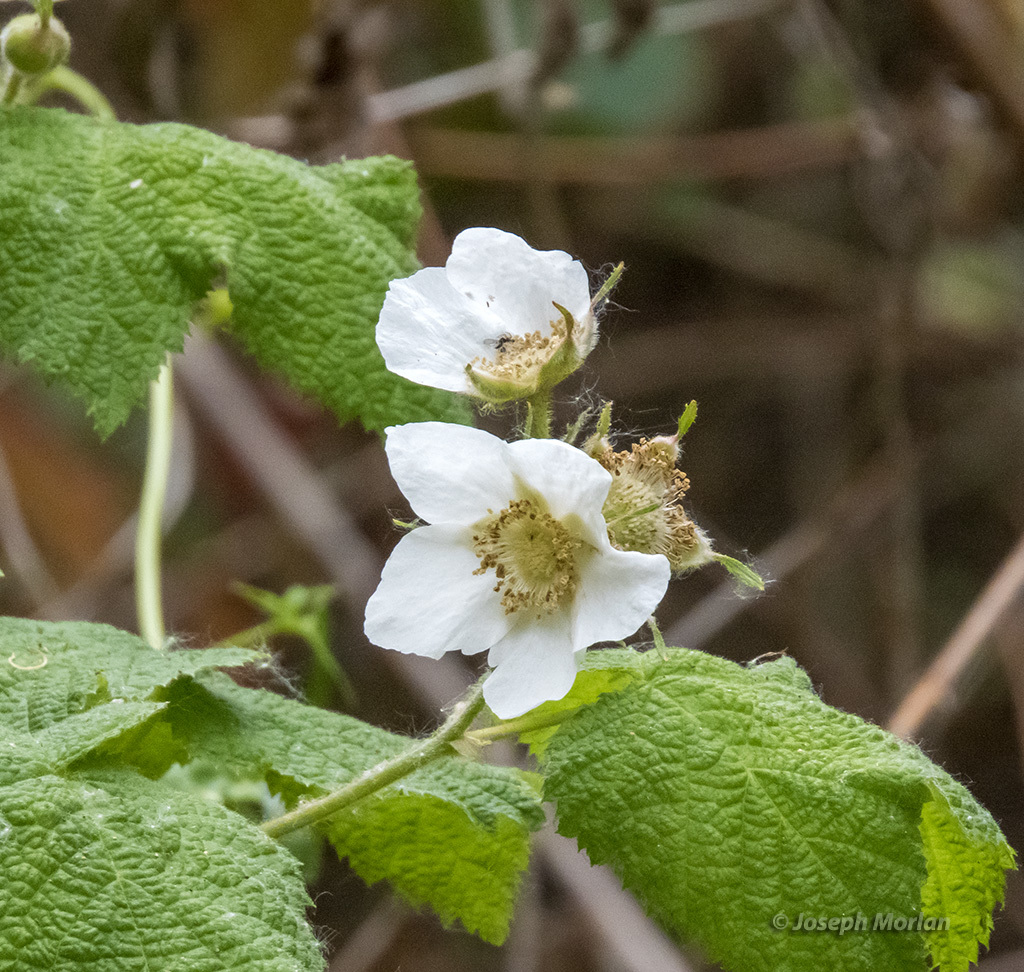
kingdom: Plantae
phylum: Tracheophyta
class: Magnoliopsida
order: Rosales
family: Rosaceae
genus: Rubus
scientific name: Rubus parviflorus
